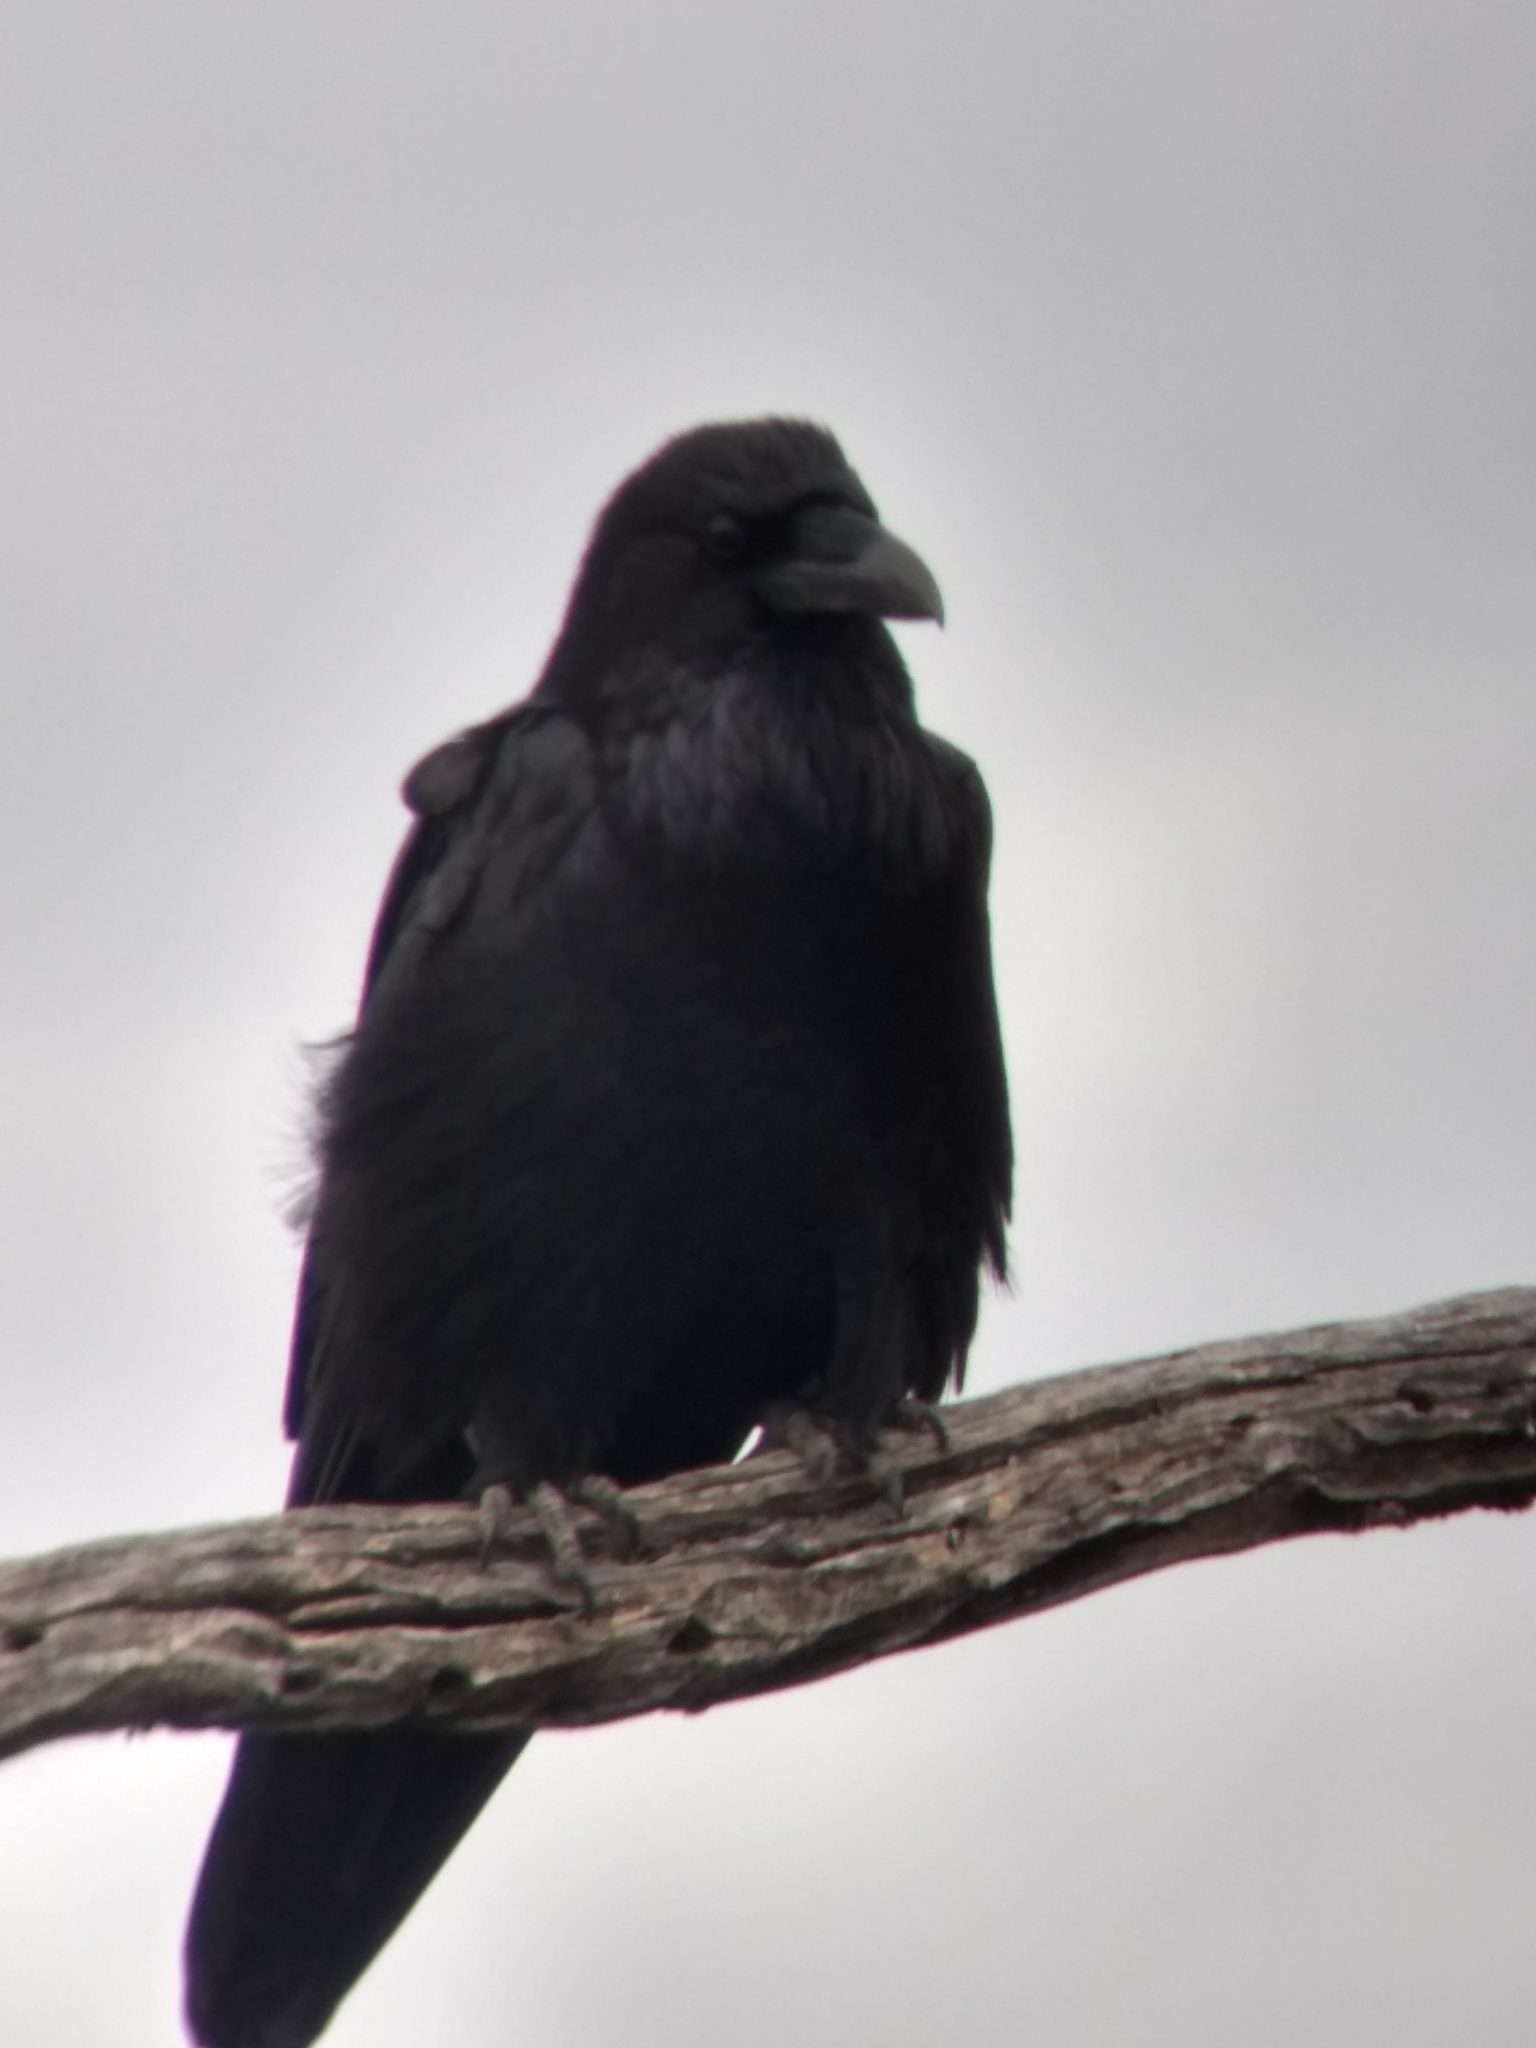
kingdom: Animalia
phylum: Chordata
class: Aves
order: Passeriformes
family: Corvidae
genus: Corvus
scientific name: Corvus corax
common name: Common raven
